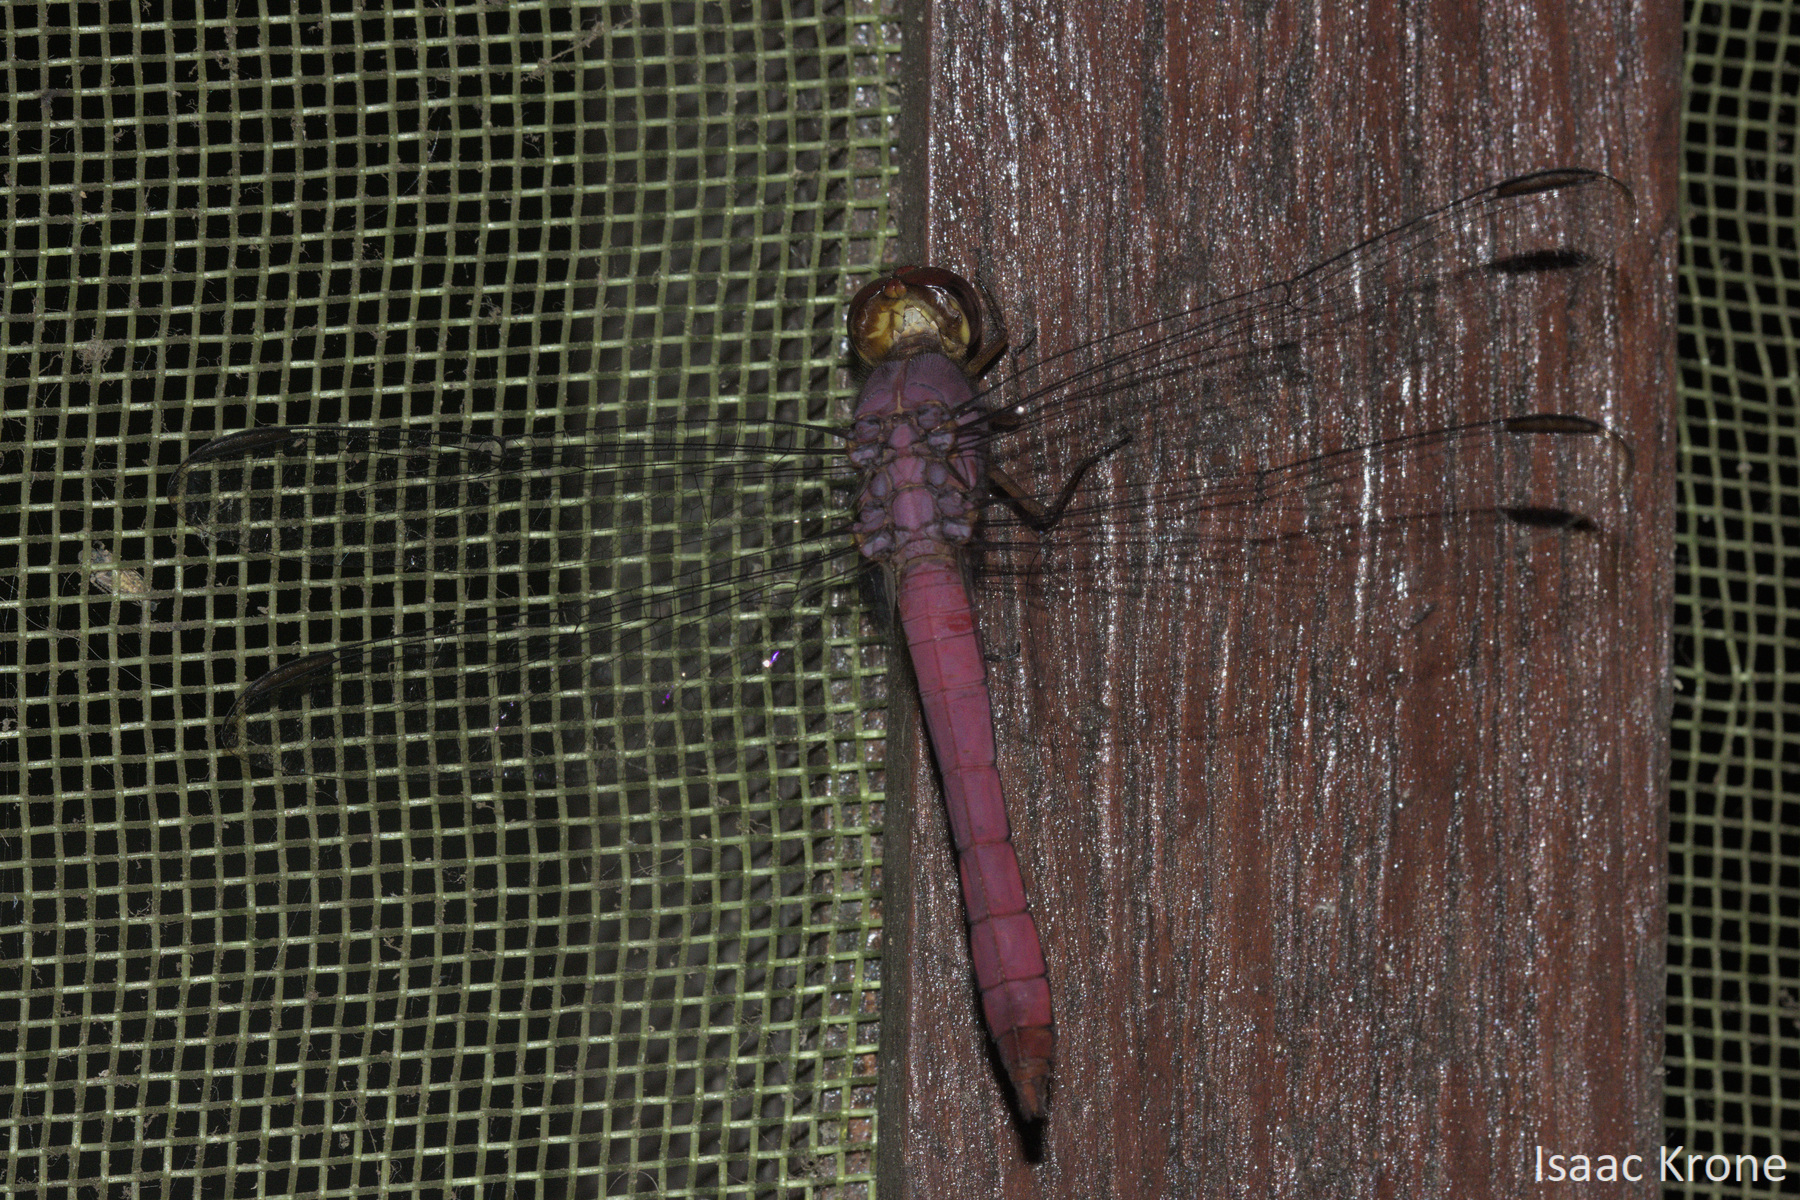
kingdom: Animalia
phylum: Arthropoda
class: Insecta
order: Odonata
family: Libellulidae
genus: Orthemis
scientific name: Orthemis discolor
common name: Carmine skimmer
